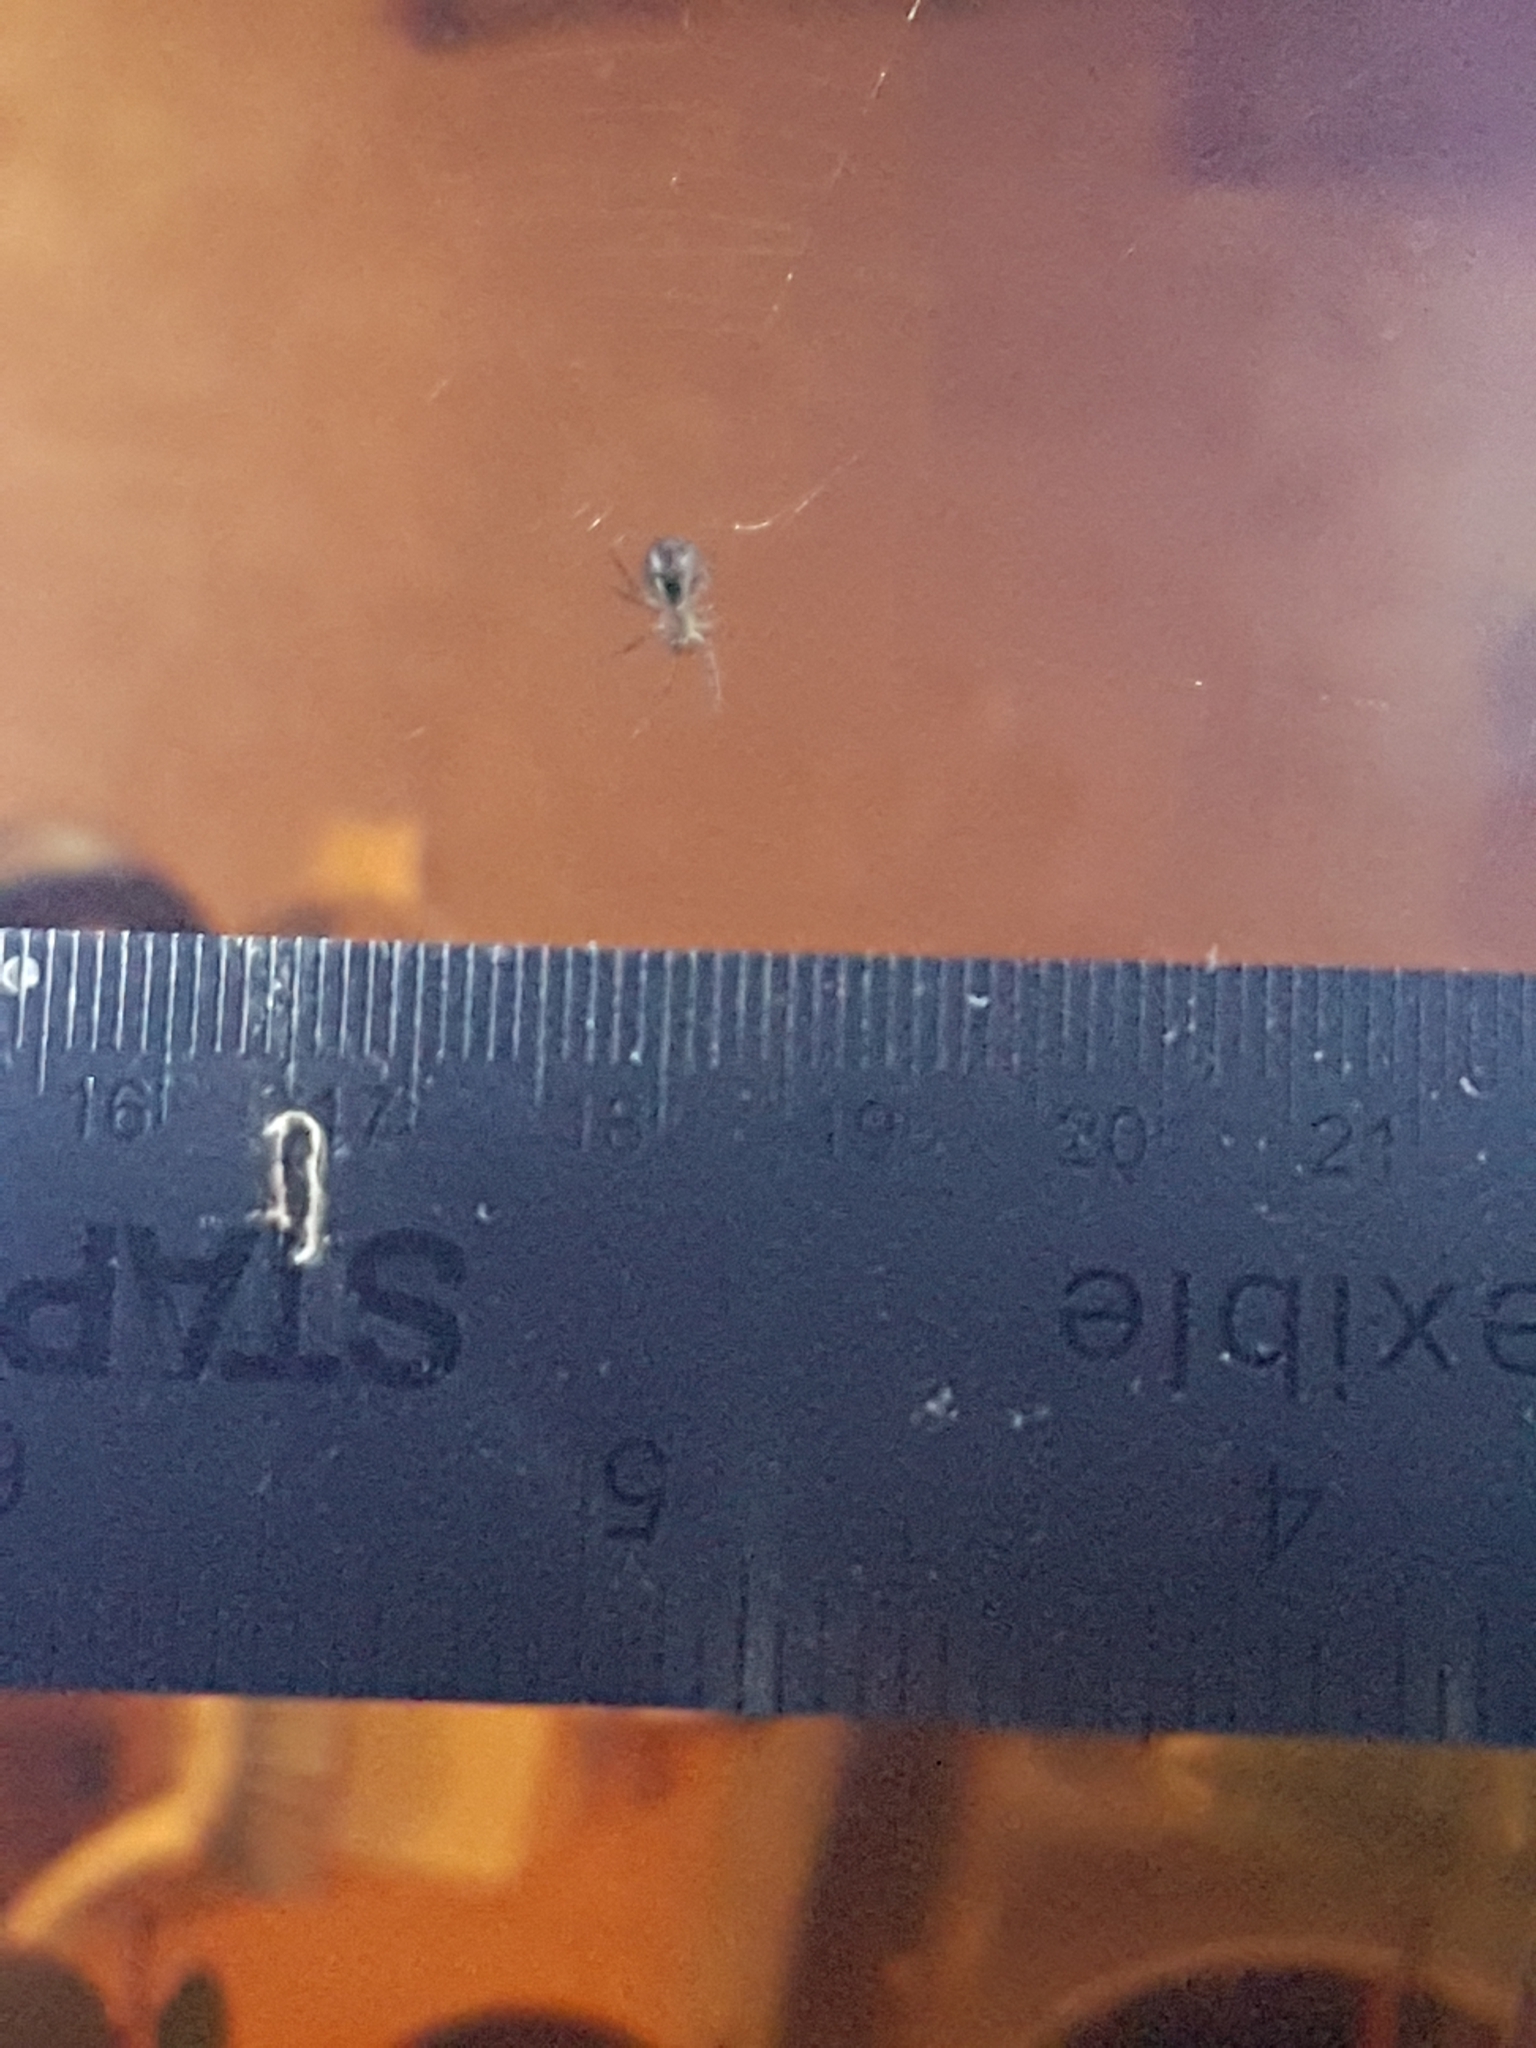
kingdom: Animalia
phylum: Arthropoda
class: Arachnida
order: Araneae
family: Araneidae
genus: Zygiella
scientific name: Zygiella x-notata
